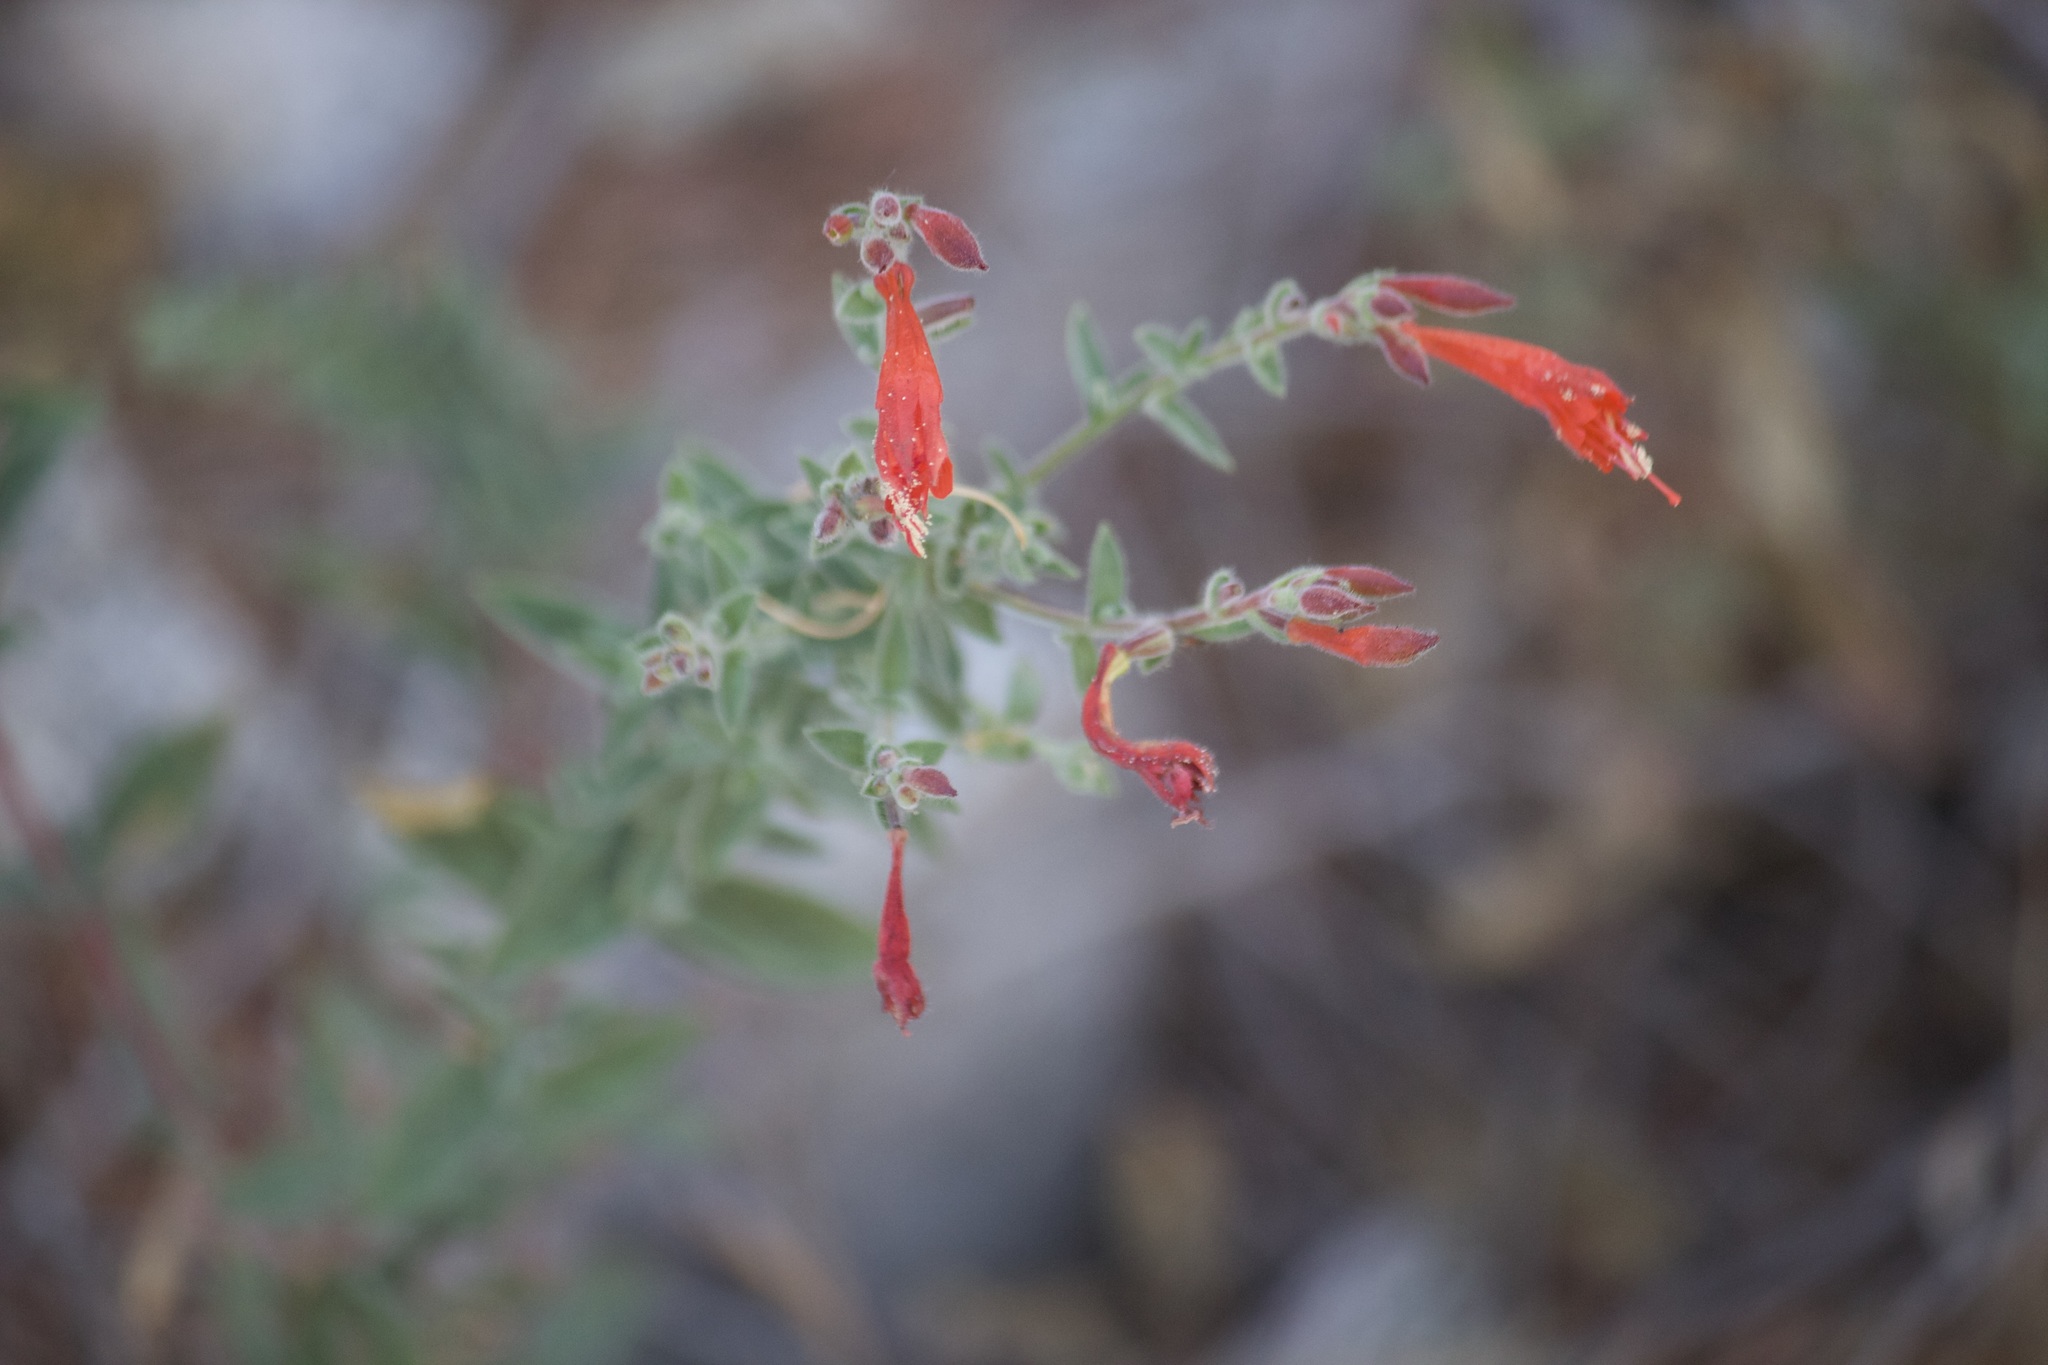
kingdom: Plantae
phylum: Tracheophyta
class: Magnoliopsida
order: Myrtales
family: Onagraceae
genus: Epilobium
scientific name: Epilobium canum
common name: California-fuchsia
